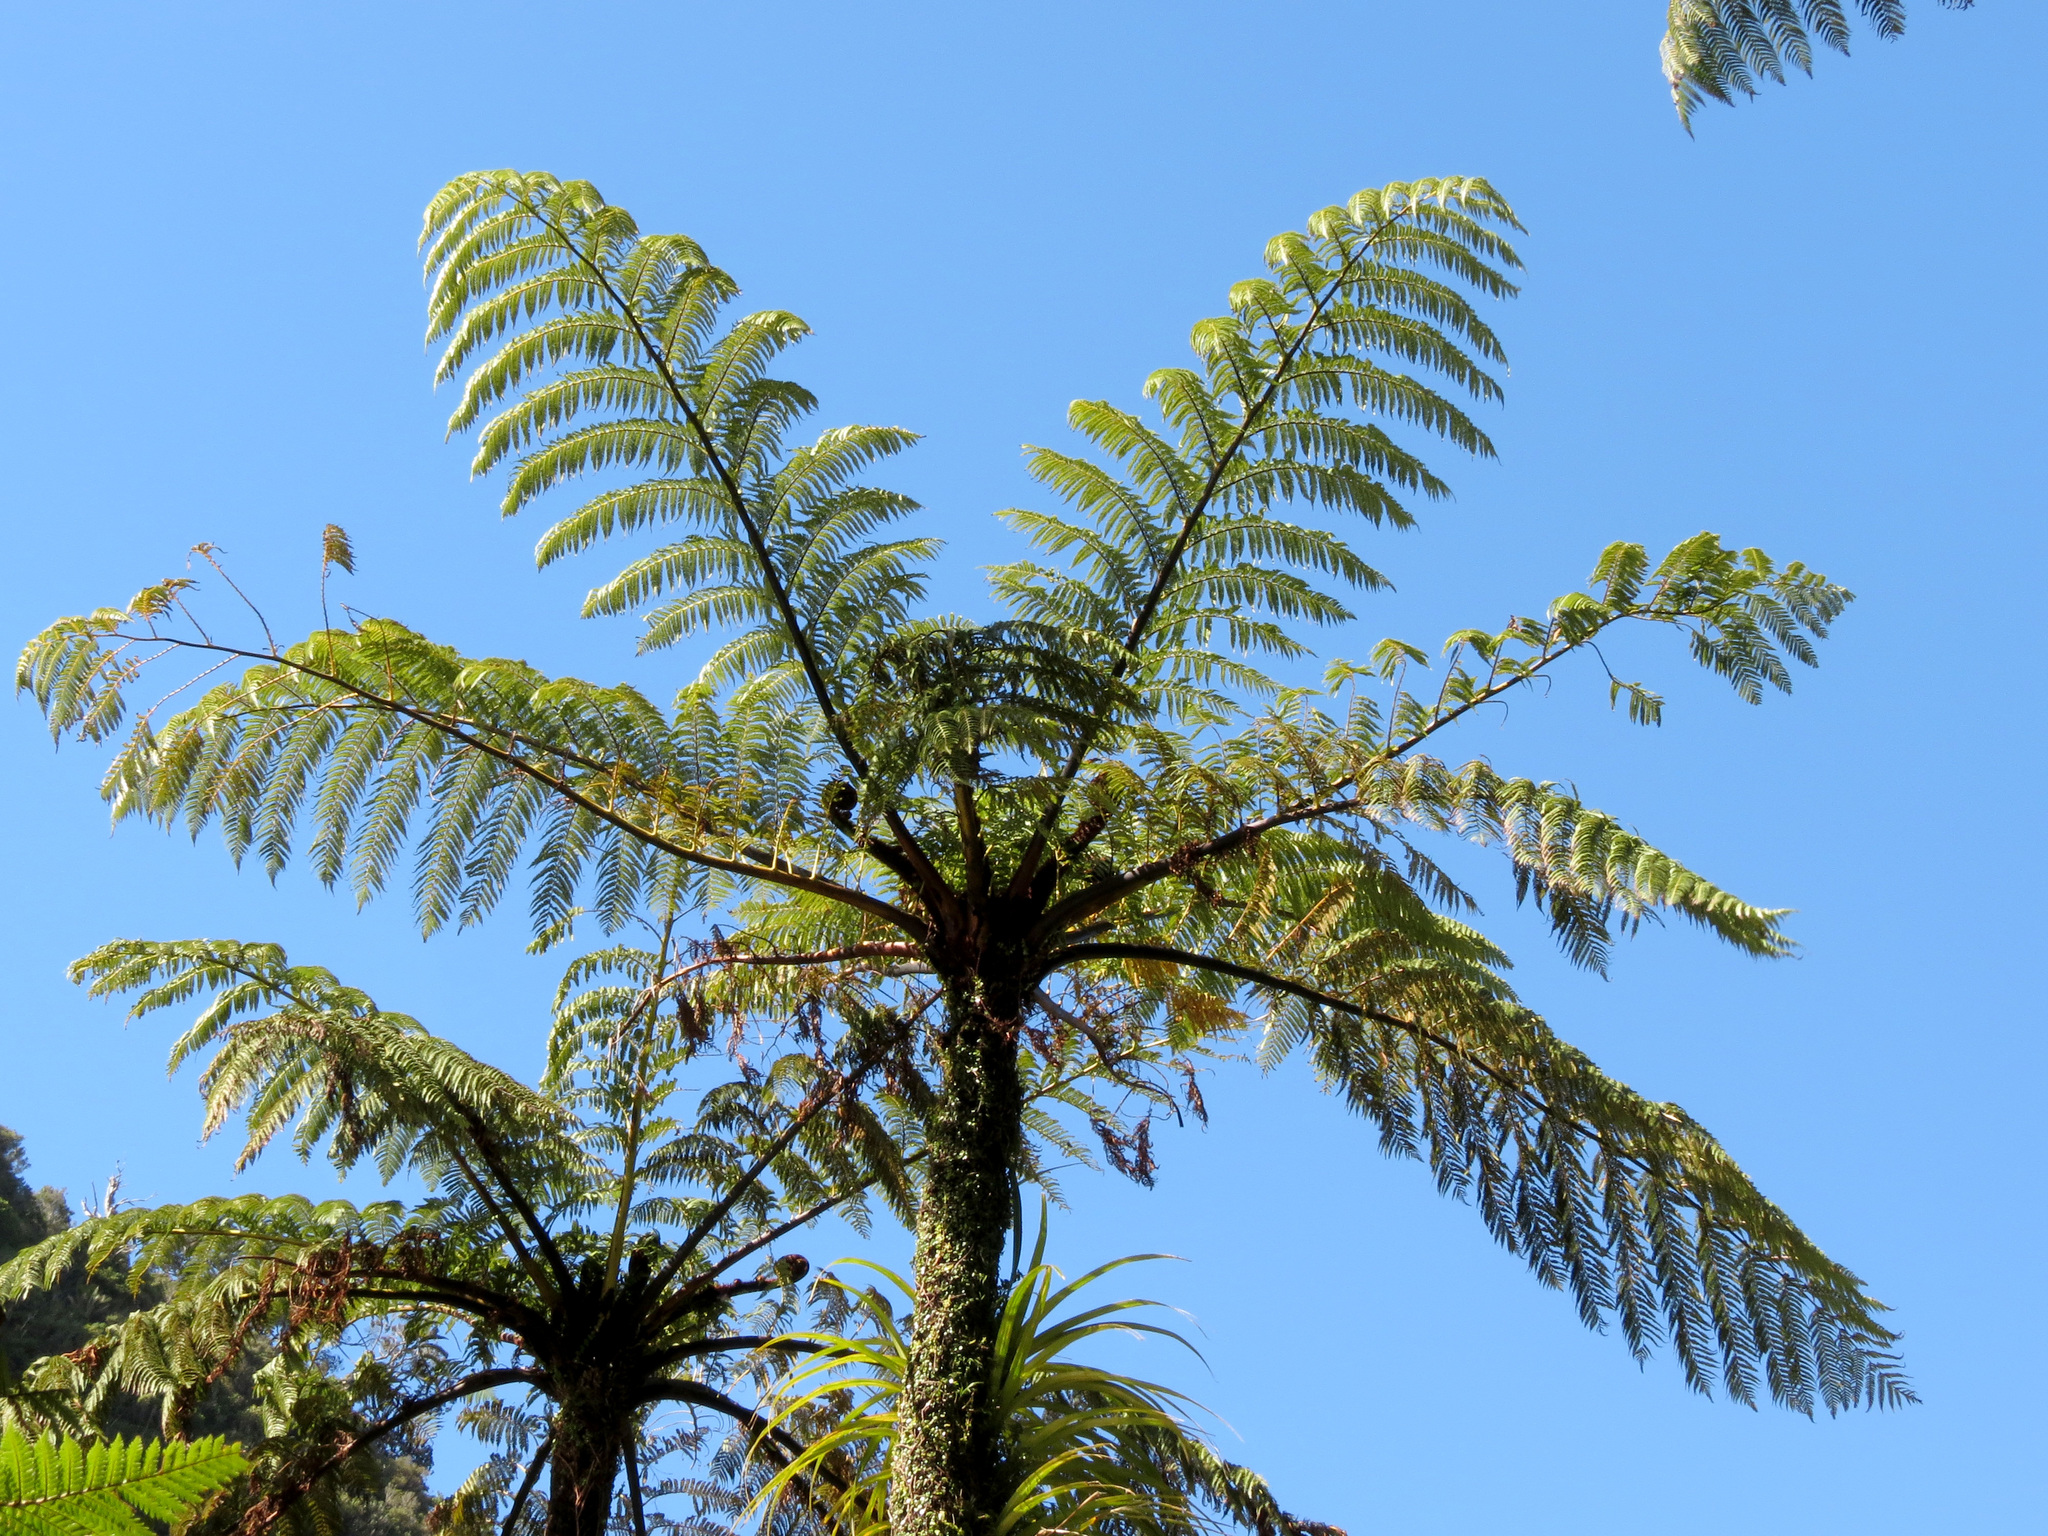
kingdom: Plantae
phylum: Tracheophyta
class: Polypodiopsida
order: Cyatheales
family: Cyatheaceae
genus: Sphaeropteris
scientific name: Sphaeropteris medullaris
